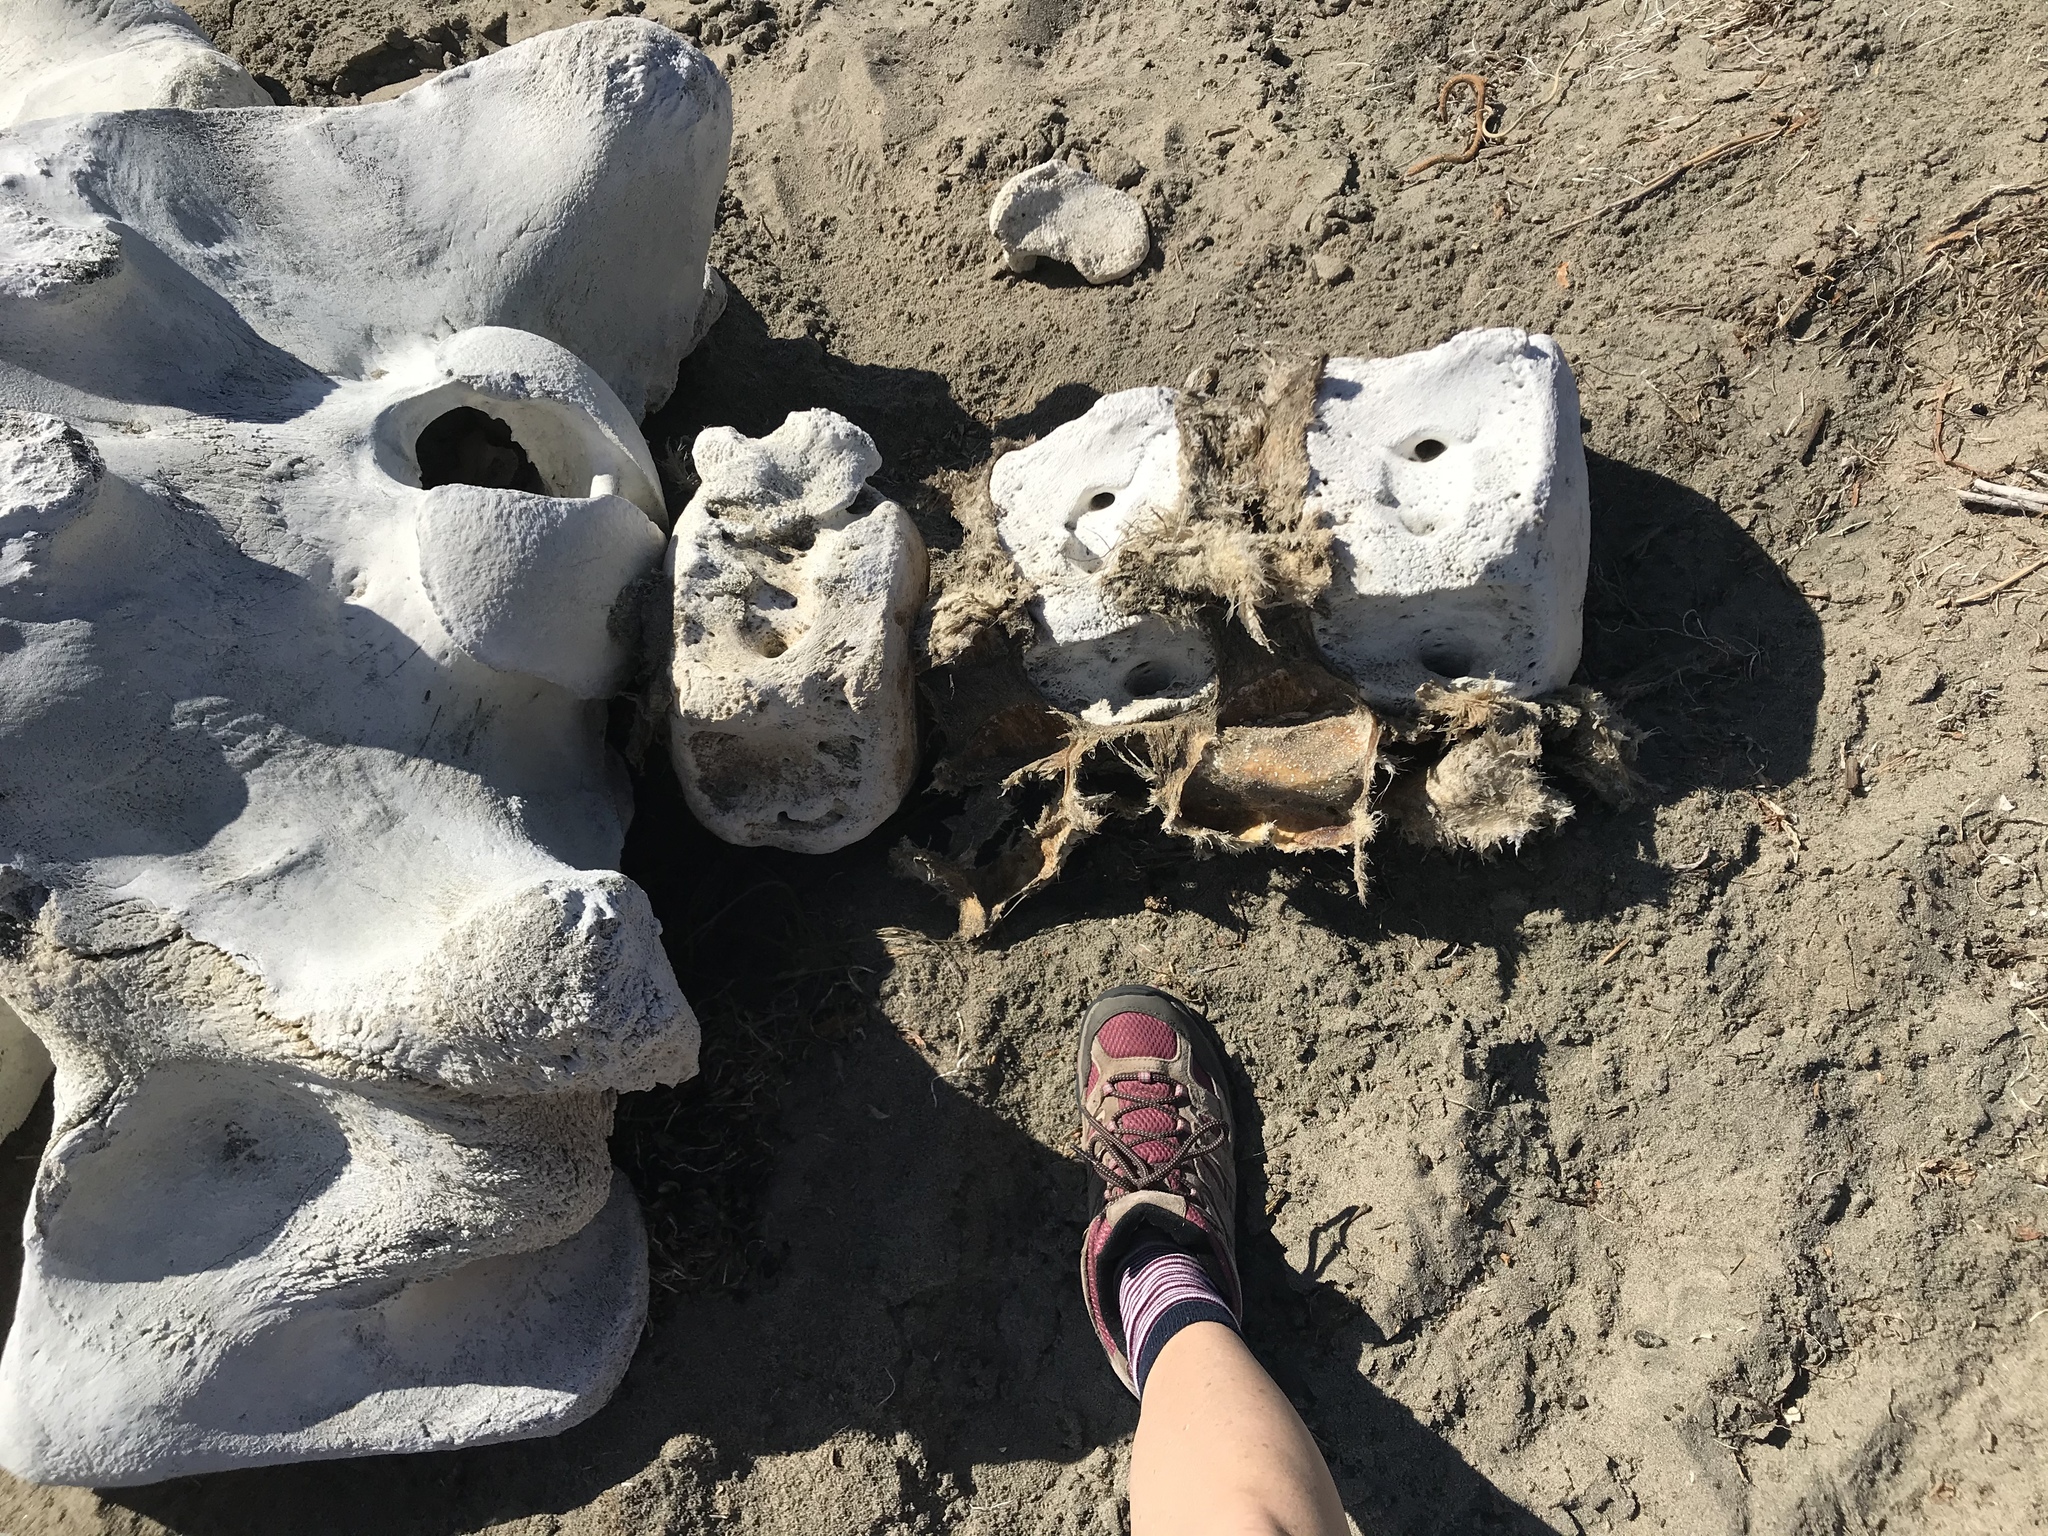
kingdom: Animalia
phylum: Chordata
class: Mammalia
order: Cetacea
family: Eschrichtiidae
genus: Eschrichtius
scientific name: Eschrichtius robustus
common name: Gray whale
